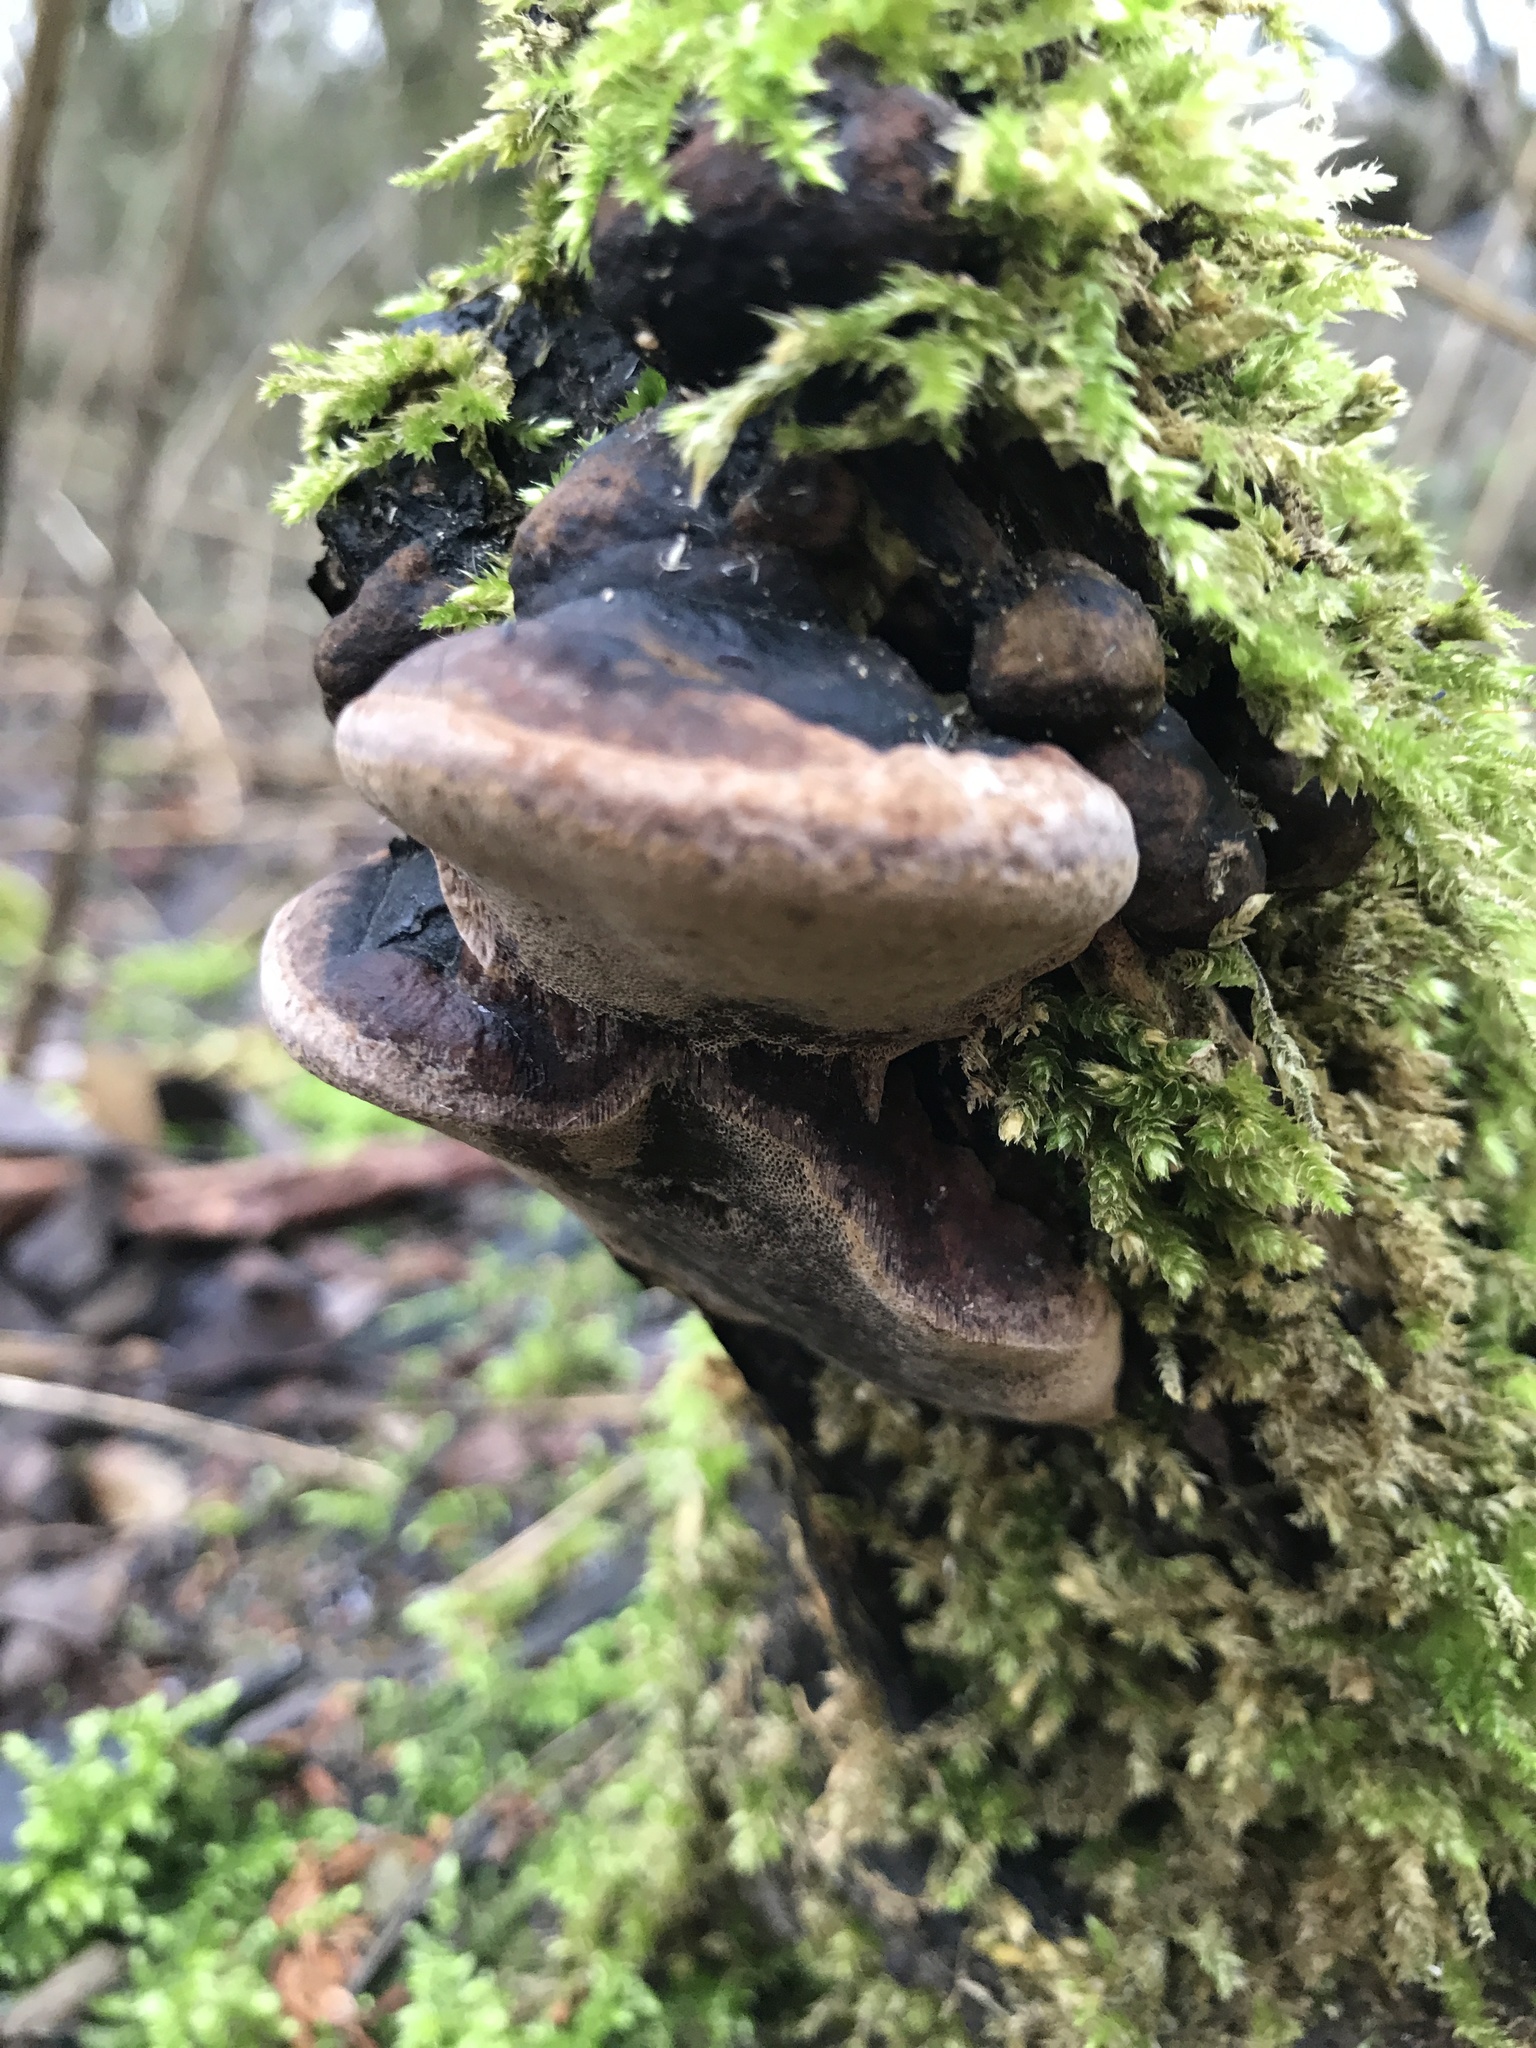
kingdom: Fungi
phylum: Basidiomycota
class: Agaricomycetes
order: Polyporales
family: Fomitopsidaceae
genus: Fomitopsis
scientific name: Fomitopsis pinicola
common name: Red-belted bracket
